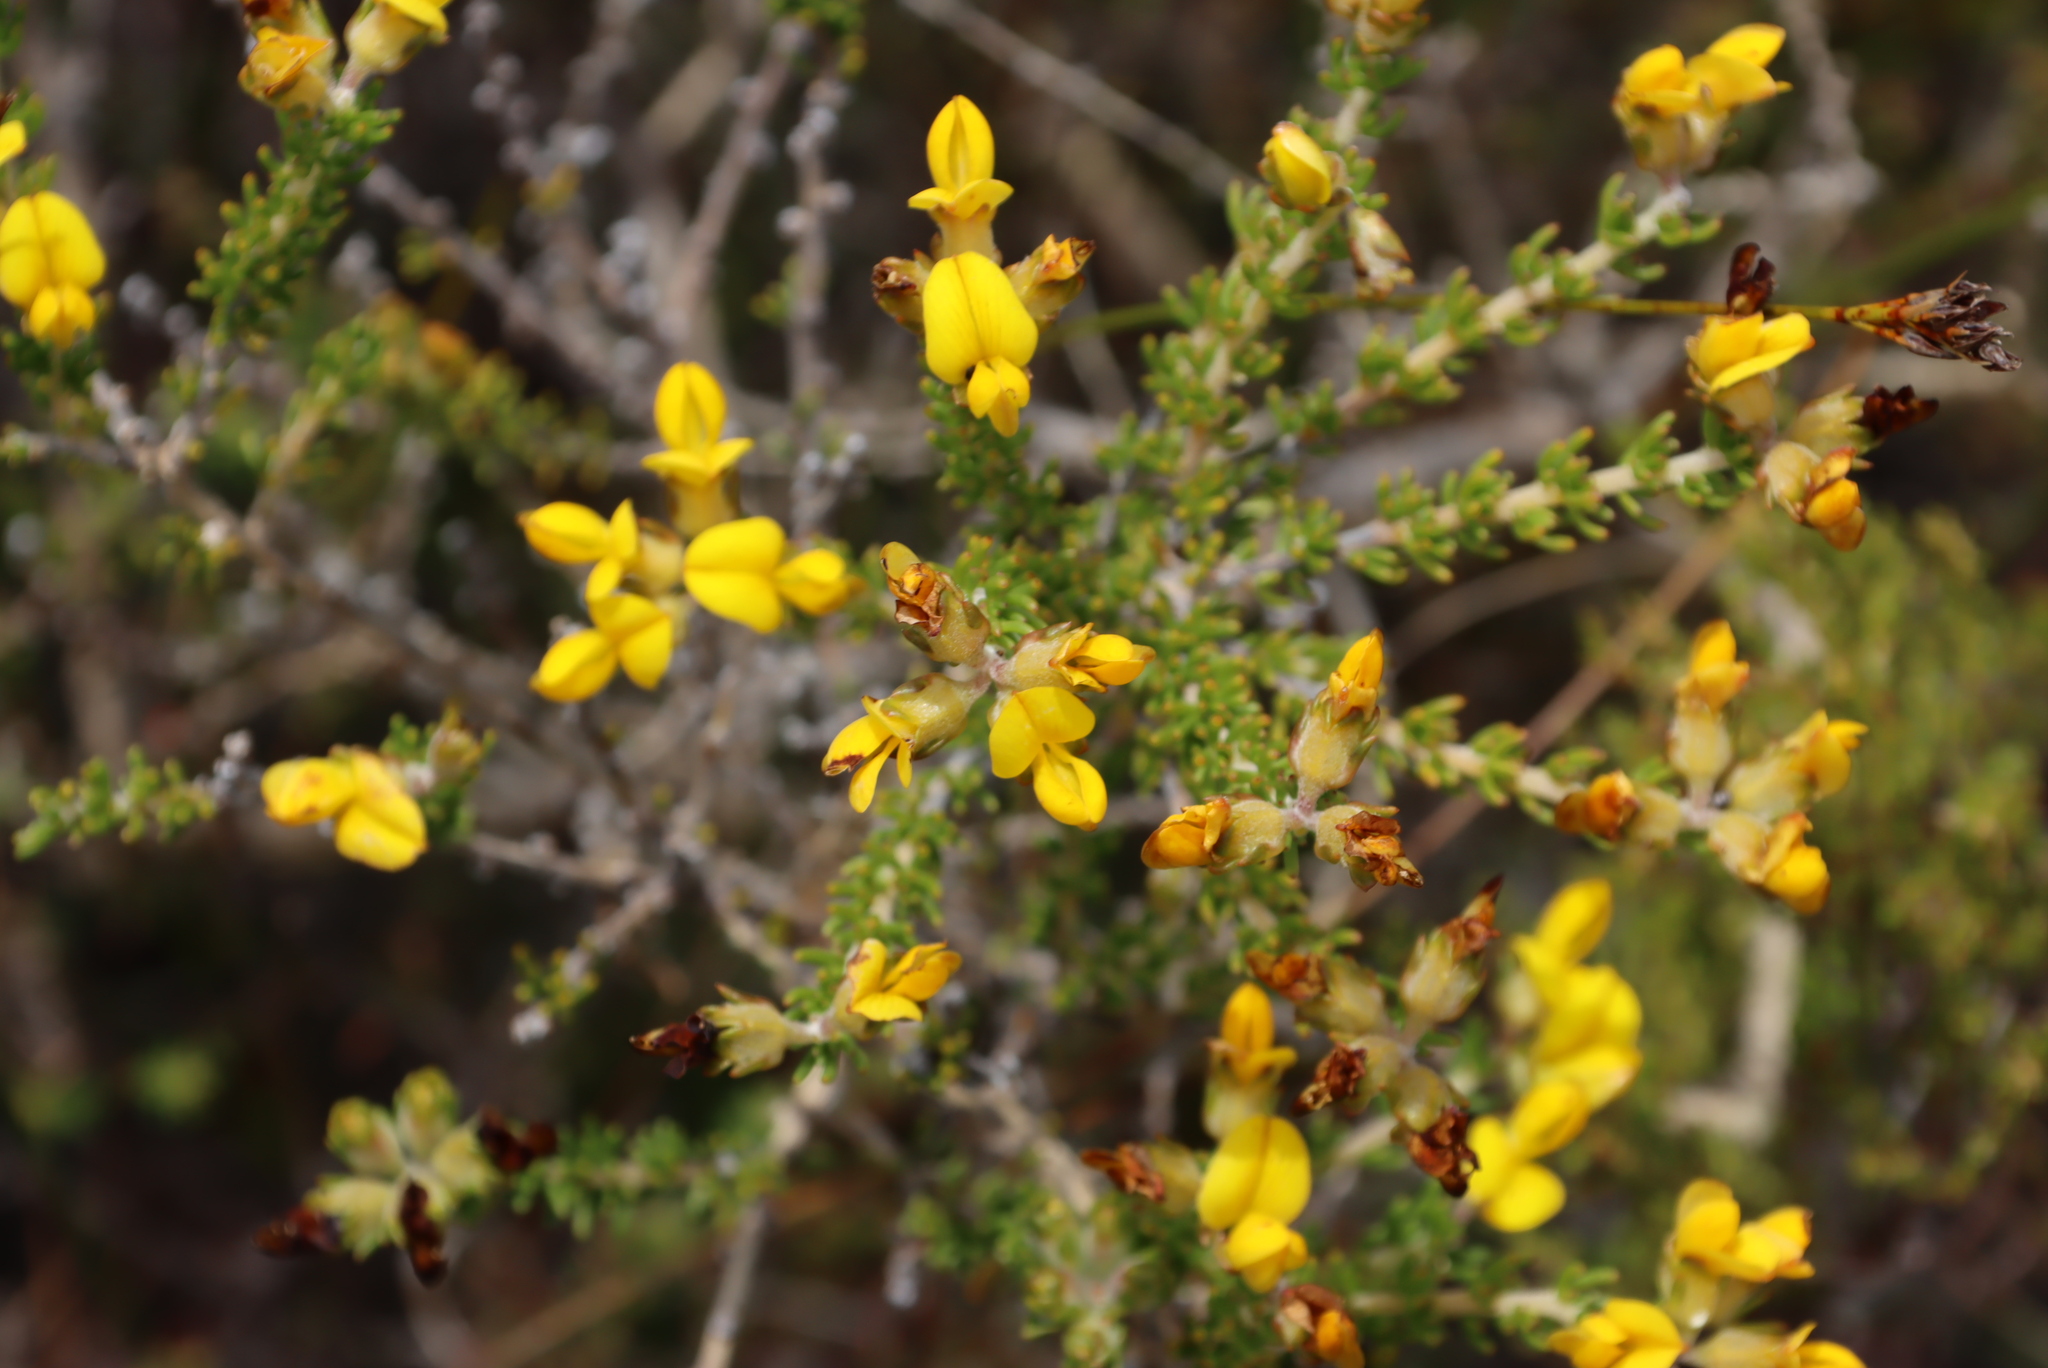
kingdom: Plantae
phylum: Tracheophyta
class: Magnoliopsida
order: Fabales
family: Fabaceae
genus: Aspalathus
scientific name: Aspalathus carnosa
